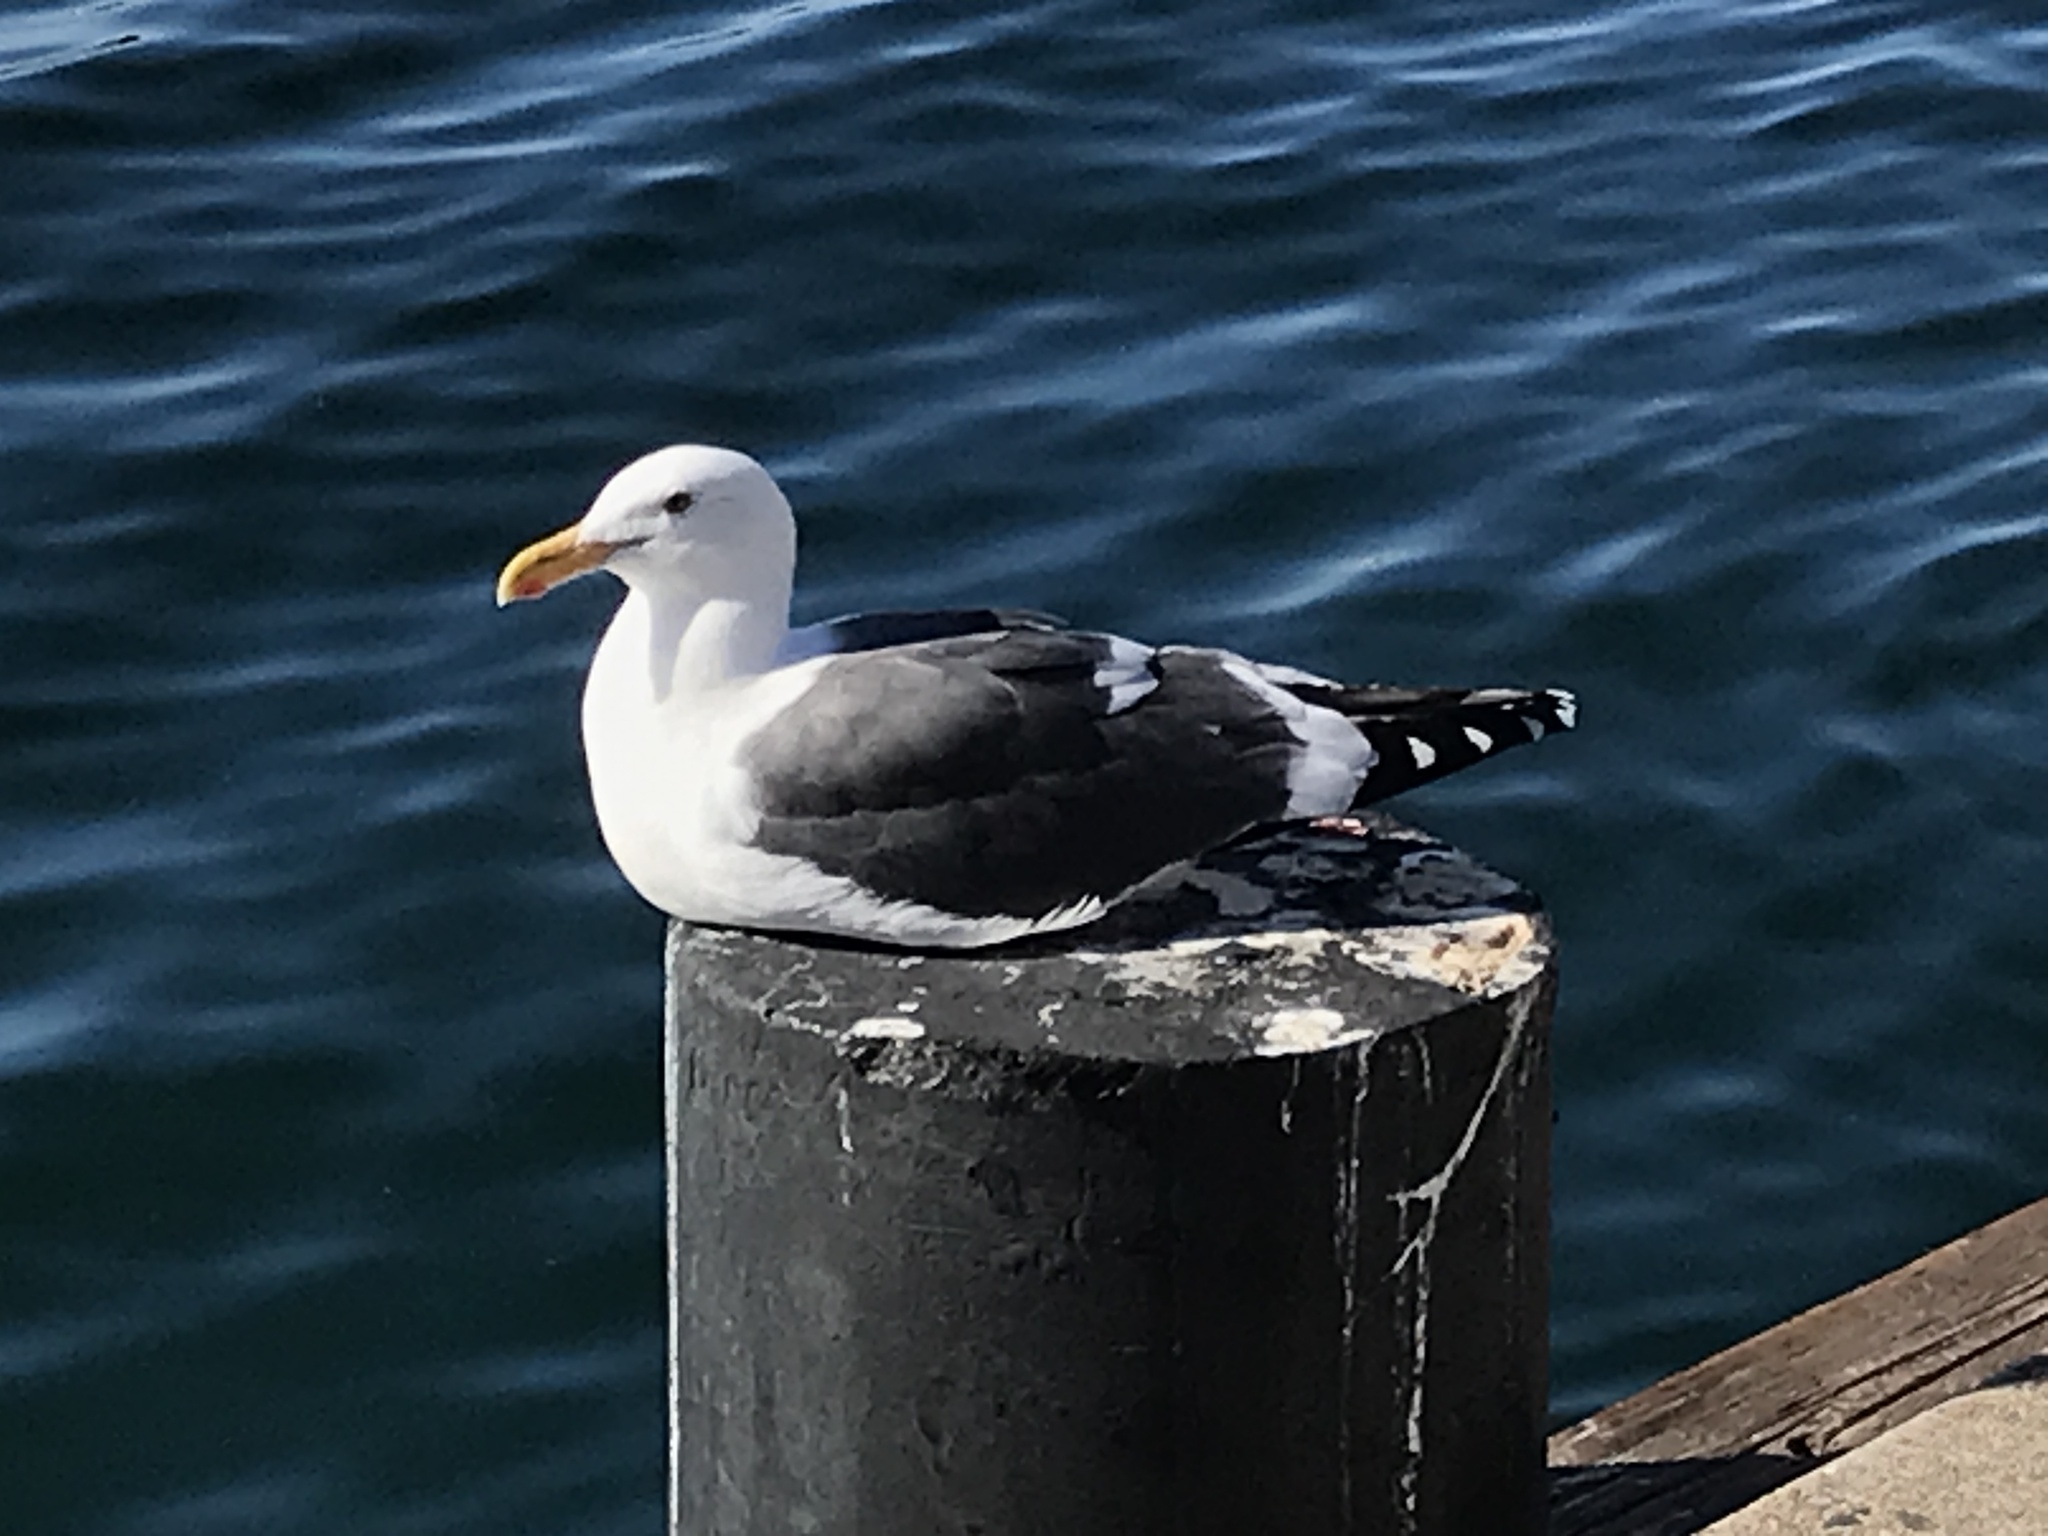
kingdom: Animalia
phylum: Chordata
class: Aves
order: Charadriiformes
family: Laridae
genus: Larus
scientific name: Larus occidentalis
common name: Western gull
